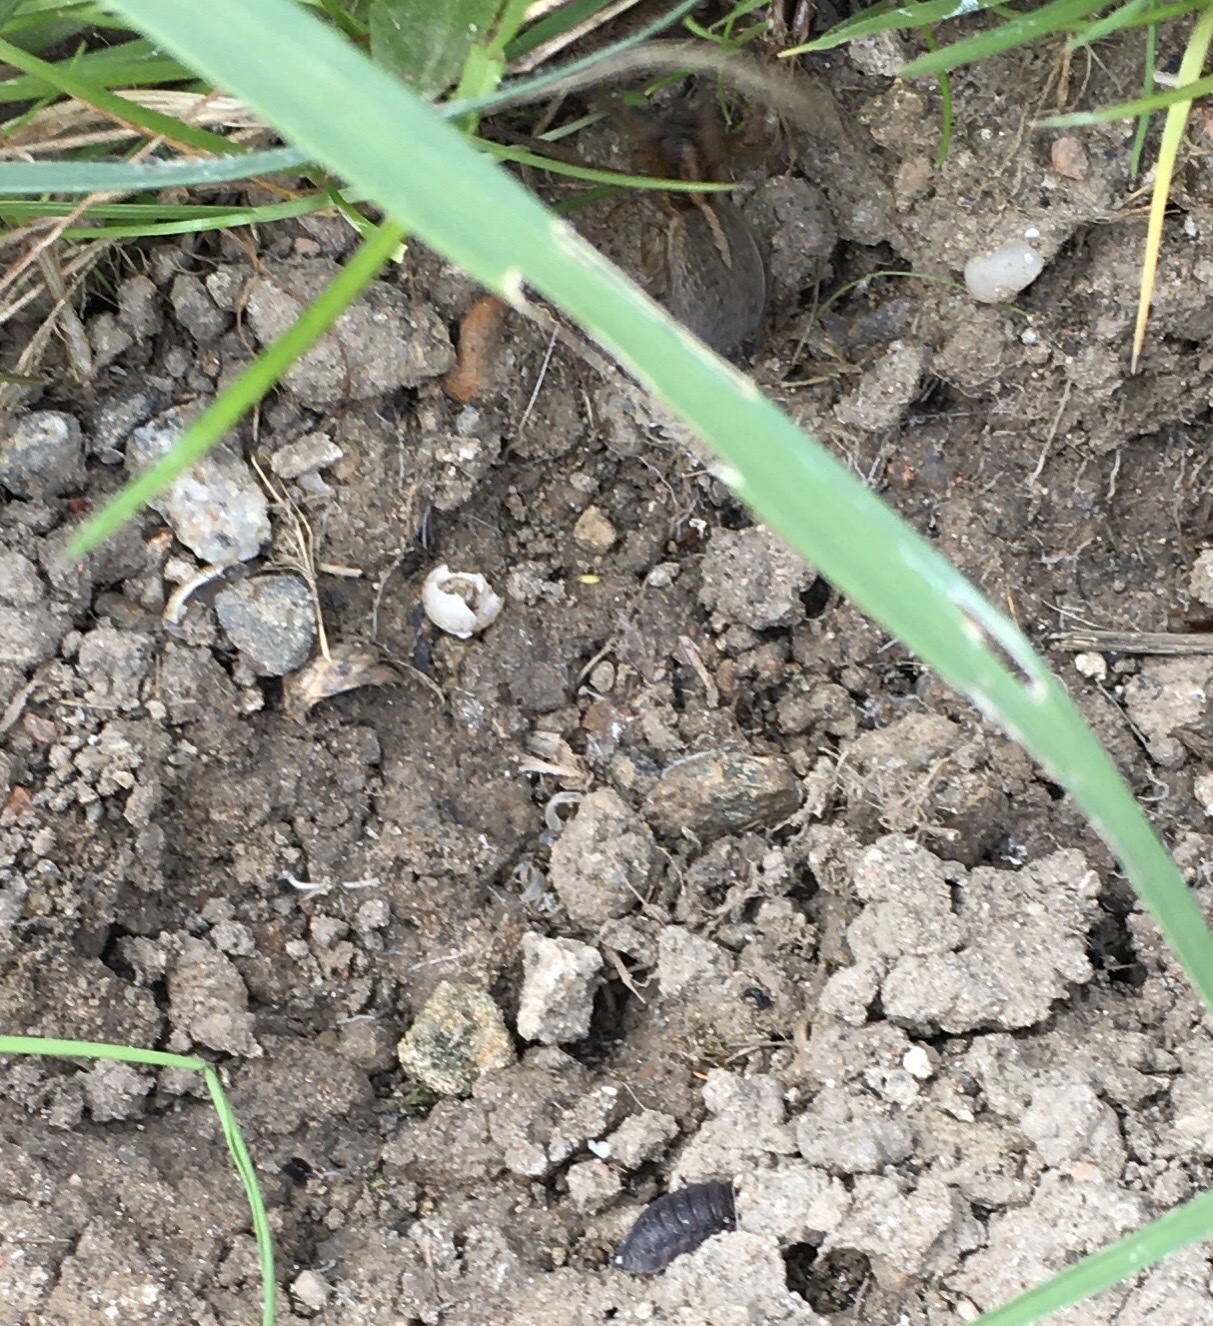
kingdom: Animalia
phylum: Arthropoda
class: Malacostraca
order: Isopoda
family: Porcellionidae
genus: Porcellio
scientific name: Porcellio scaber
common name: Common rough woodlouse
